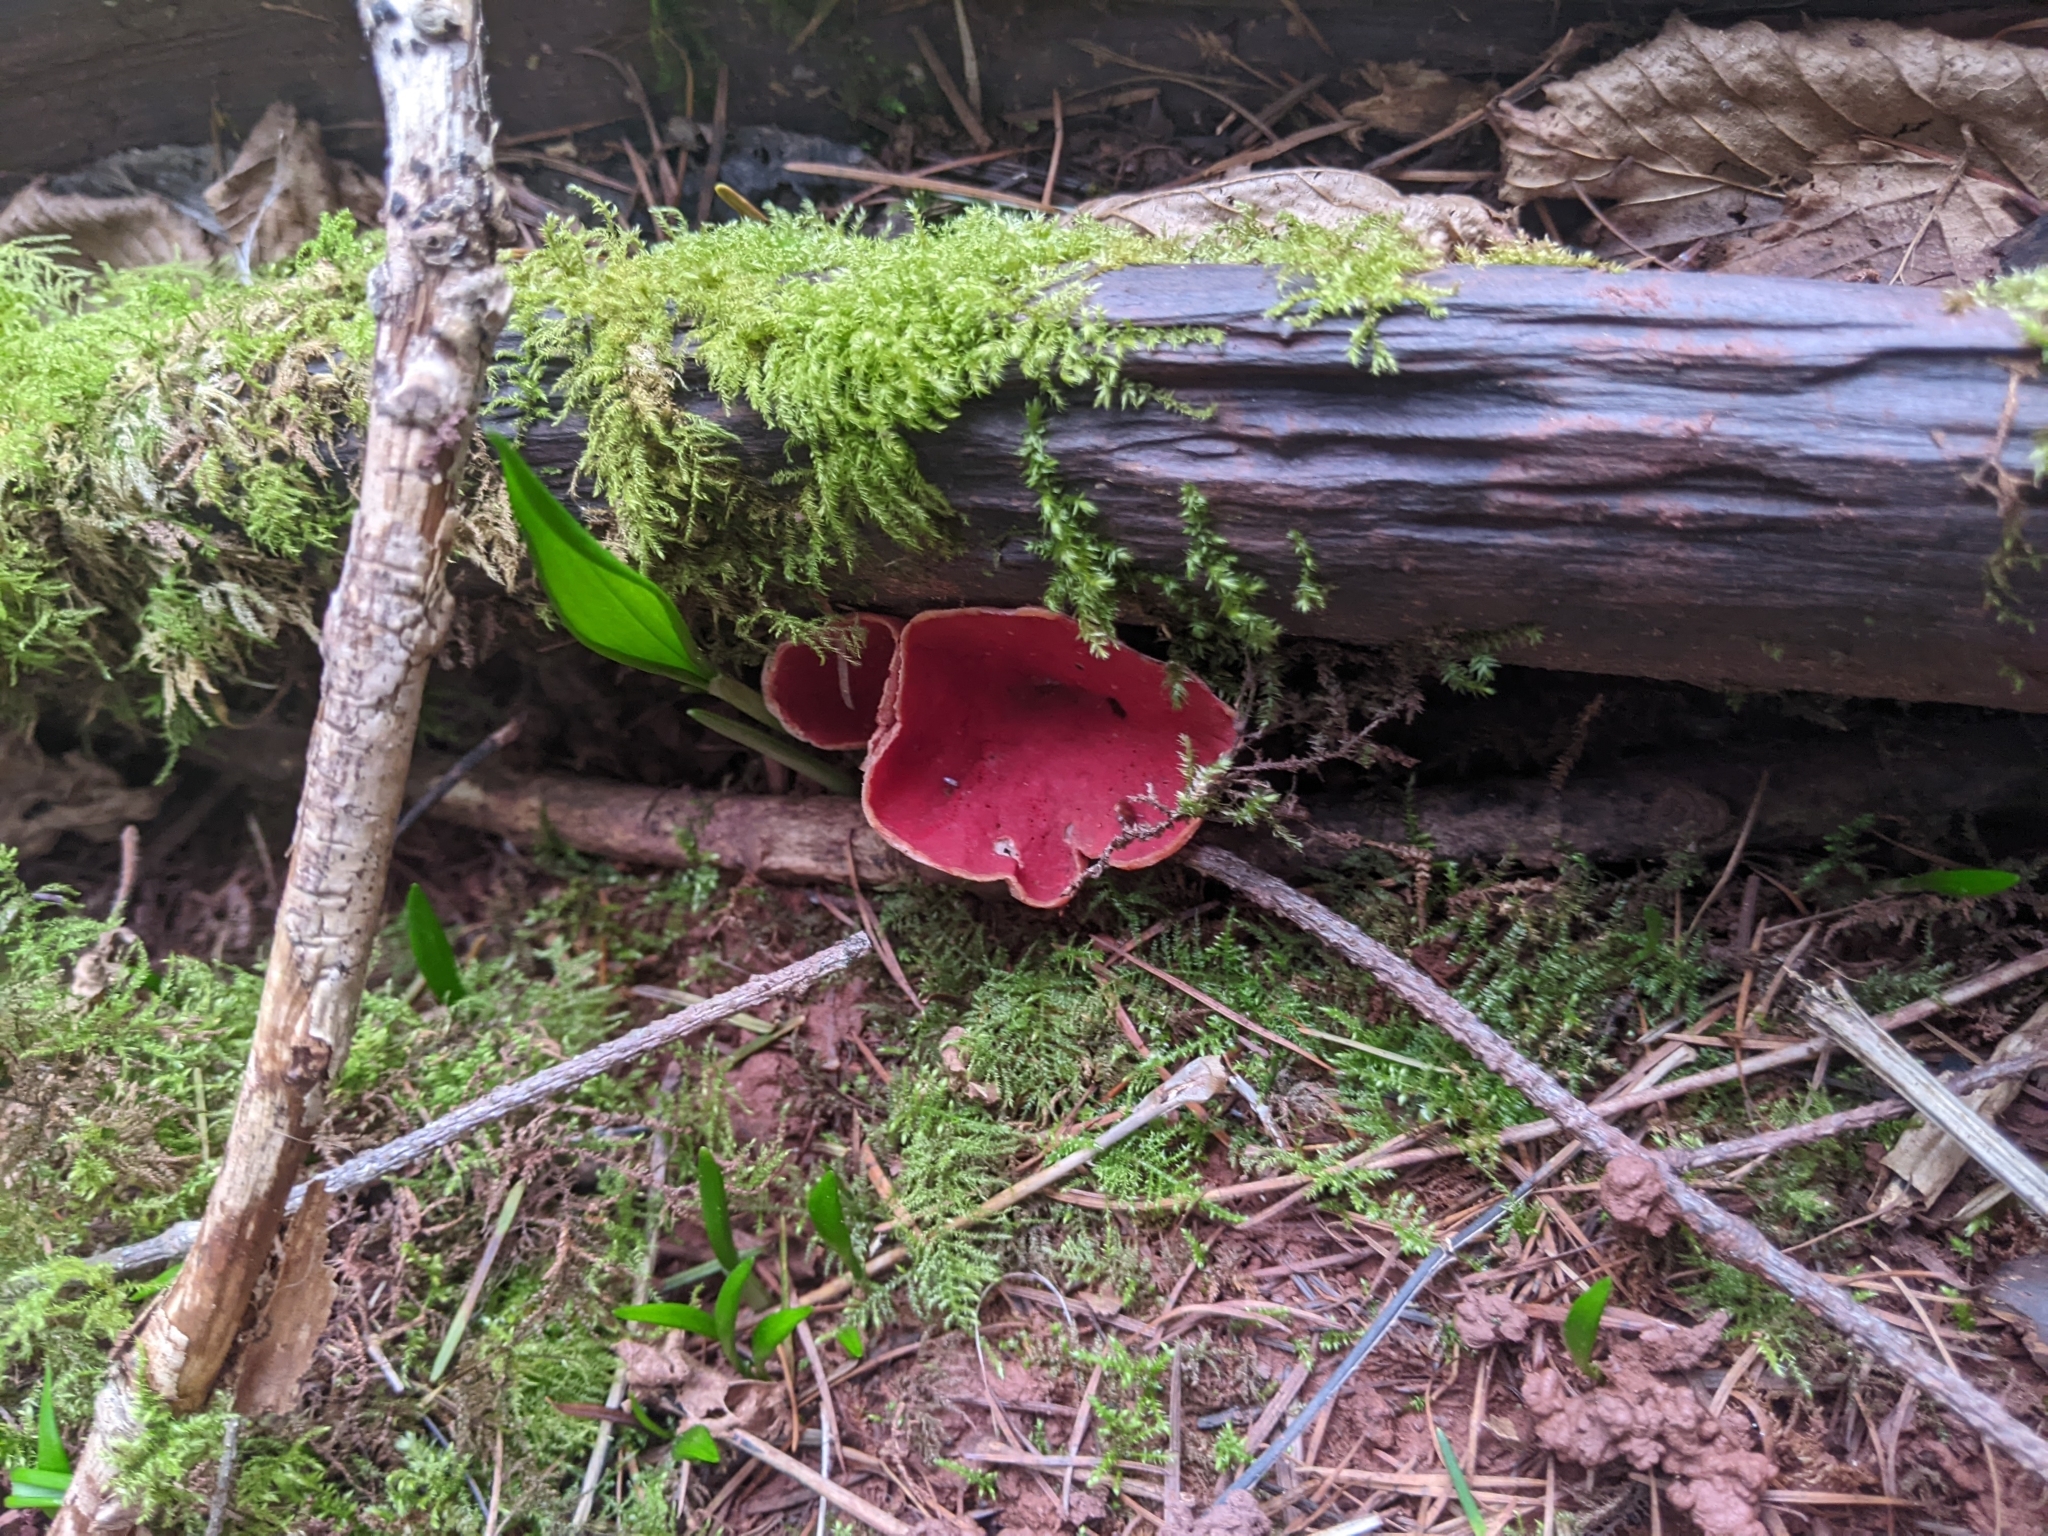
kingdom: Fungi
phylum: Ascomycota
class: Pezizomycetes
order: Pezizales
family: Sarcoscyphaceae
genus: Sarcoscypha
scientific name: Sarcoscypha
